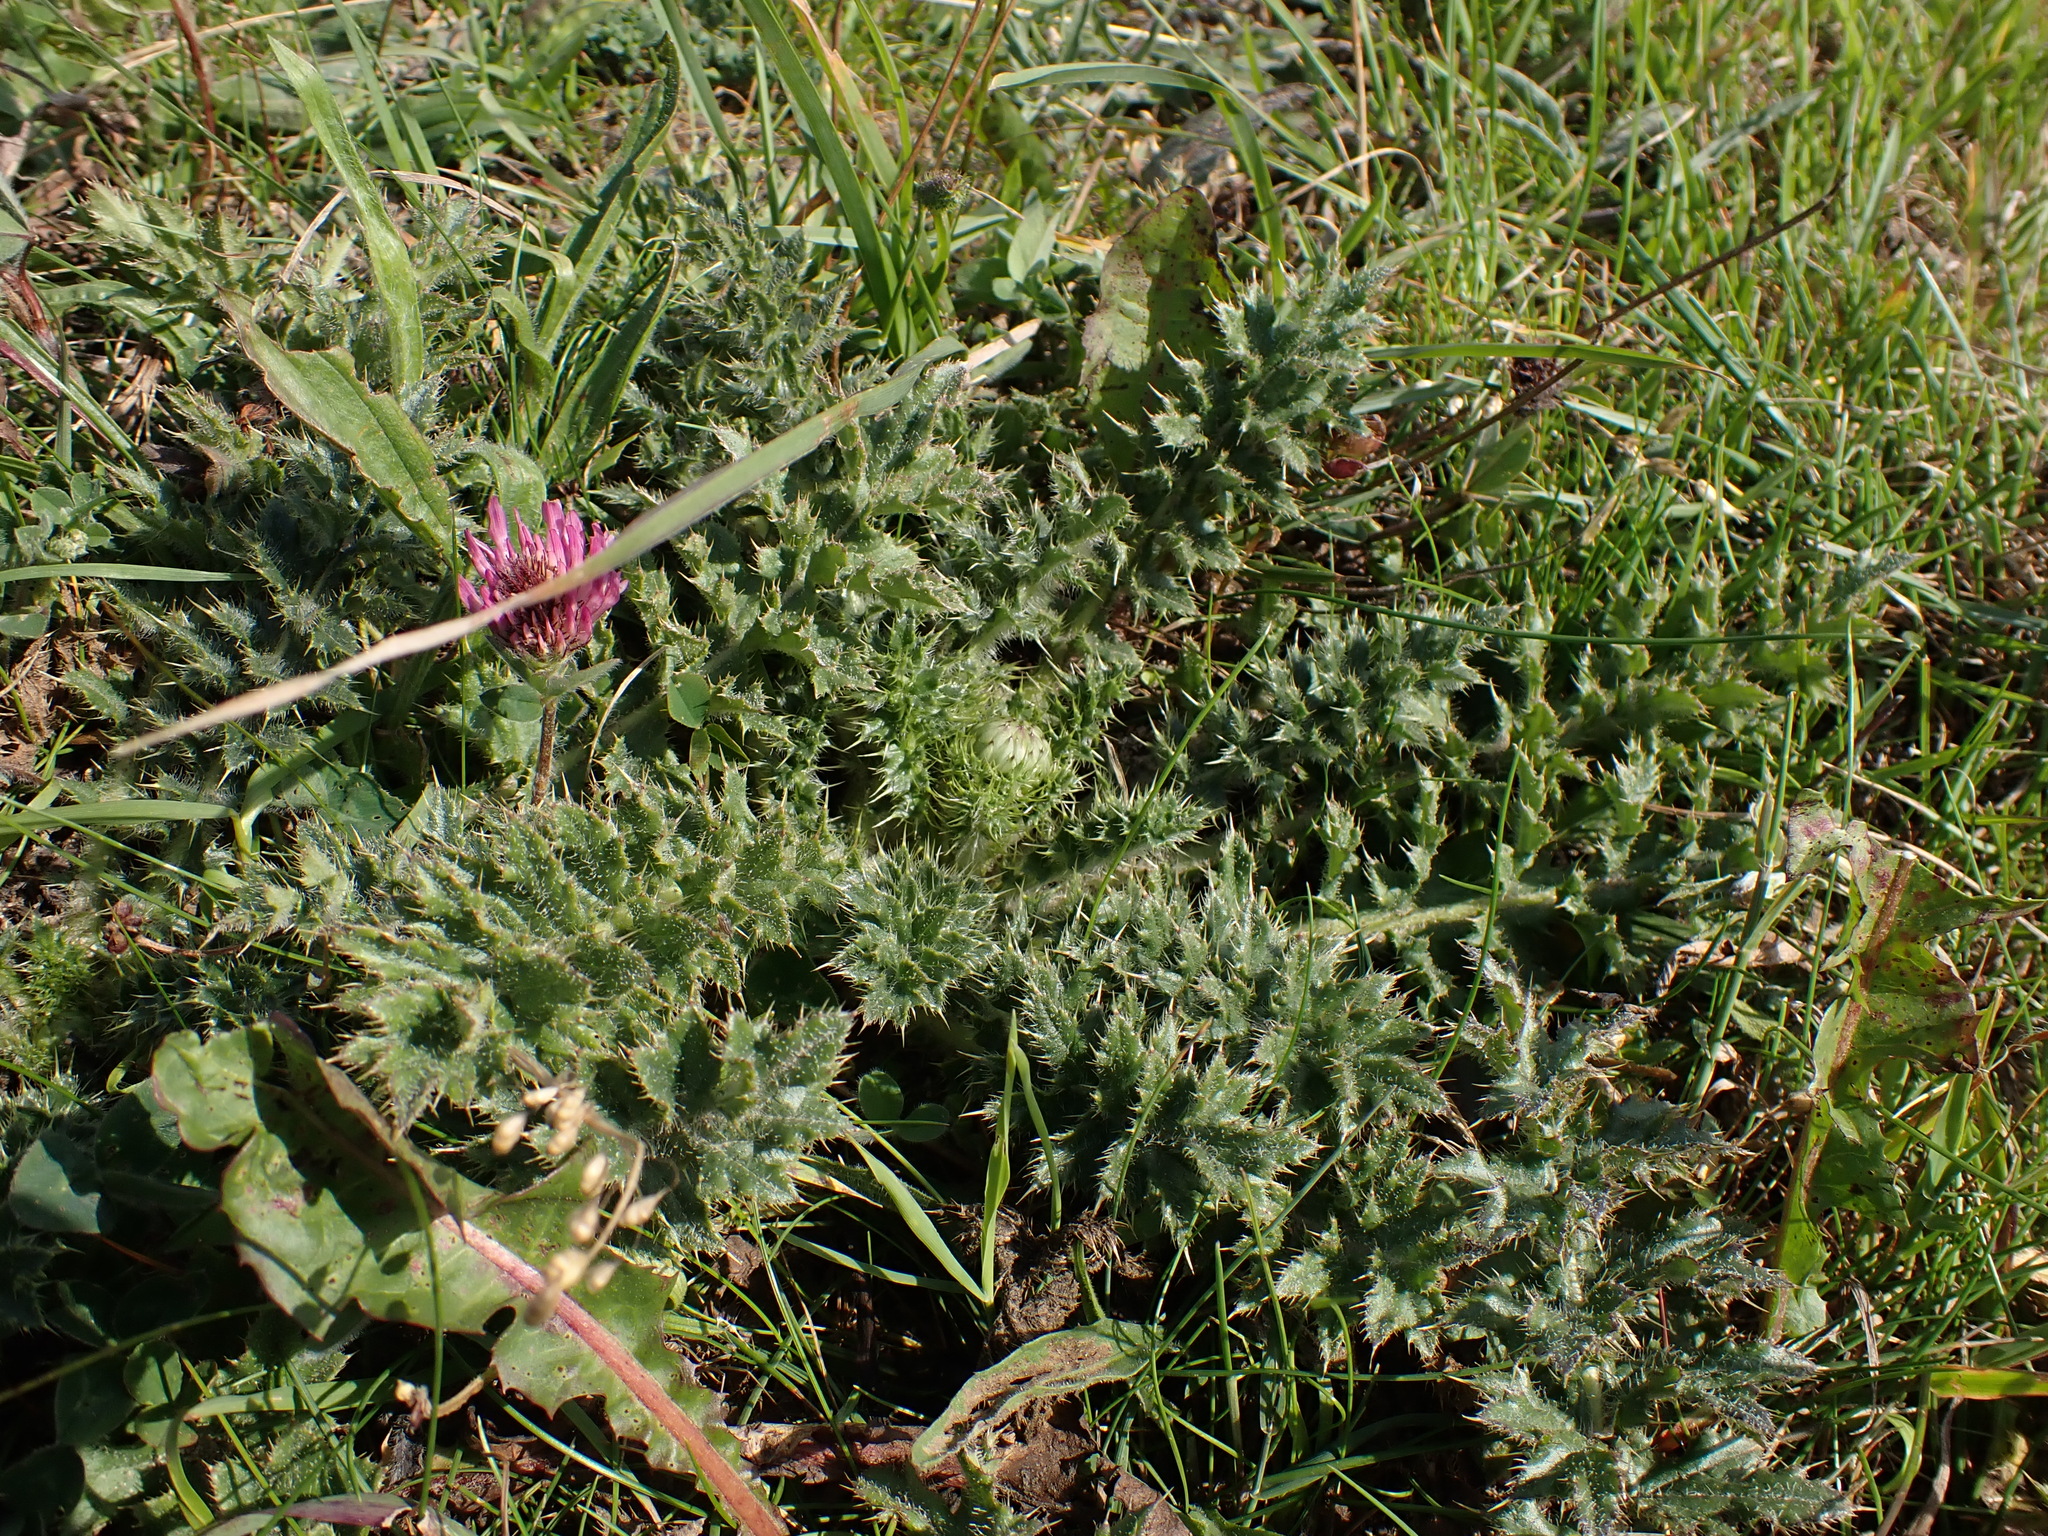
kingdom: Plantae
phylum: Tracheophyta
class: Magnoliopsida
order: Asterales
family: Asteraceae
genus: Cirsium
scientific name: Cirsium acaulon
